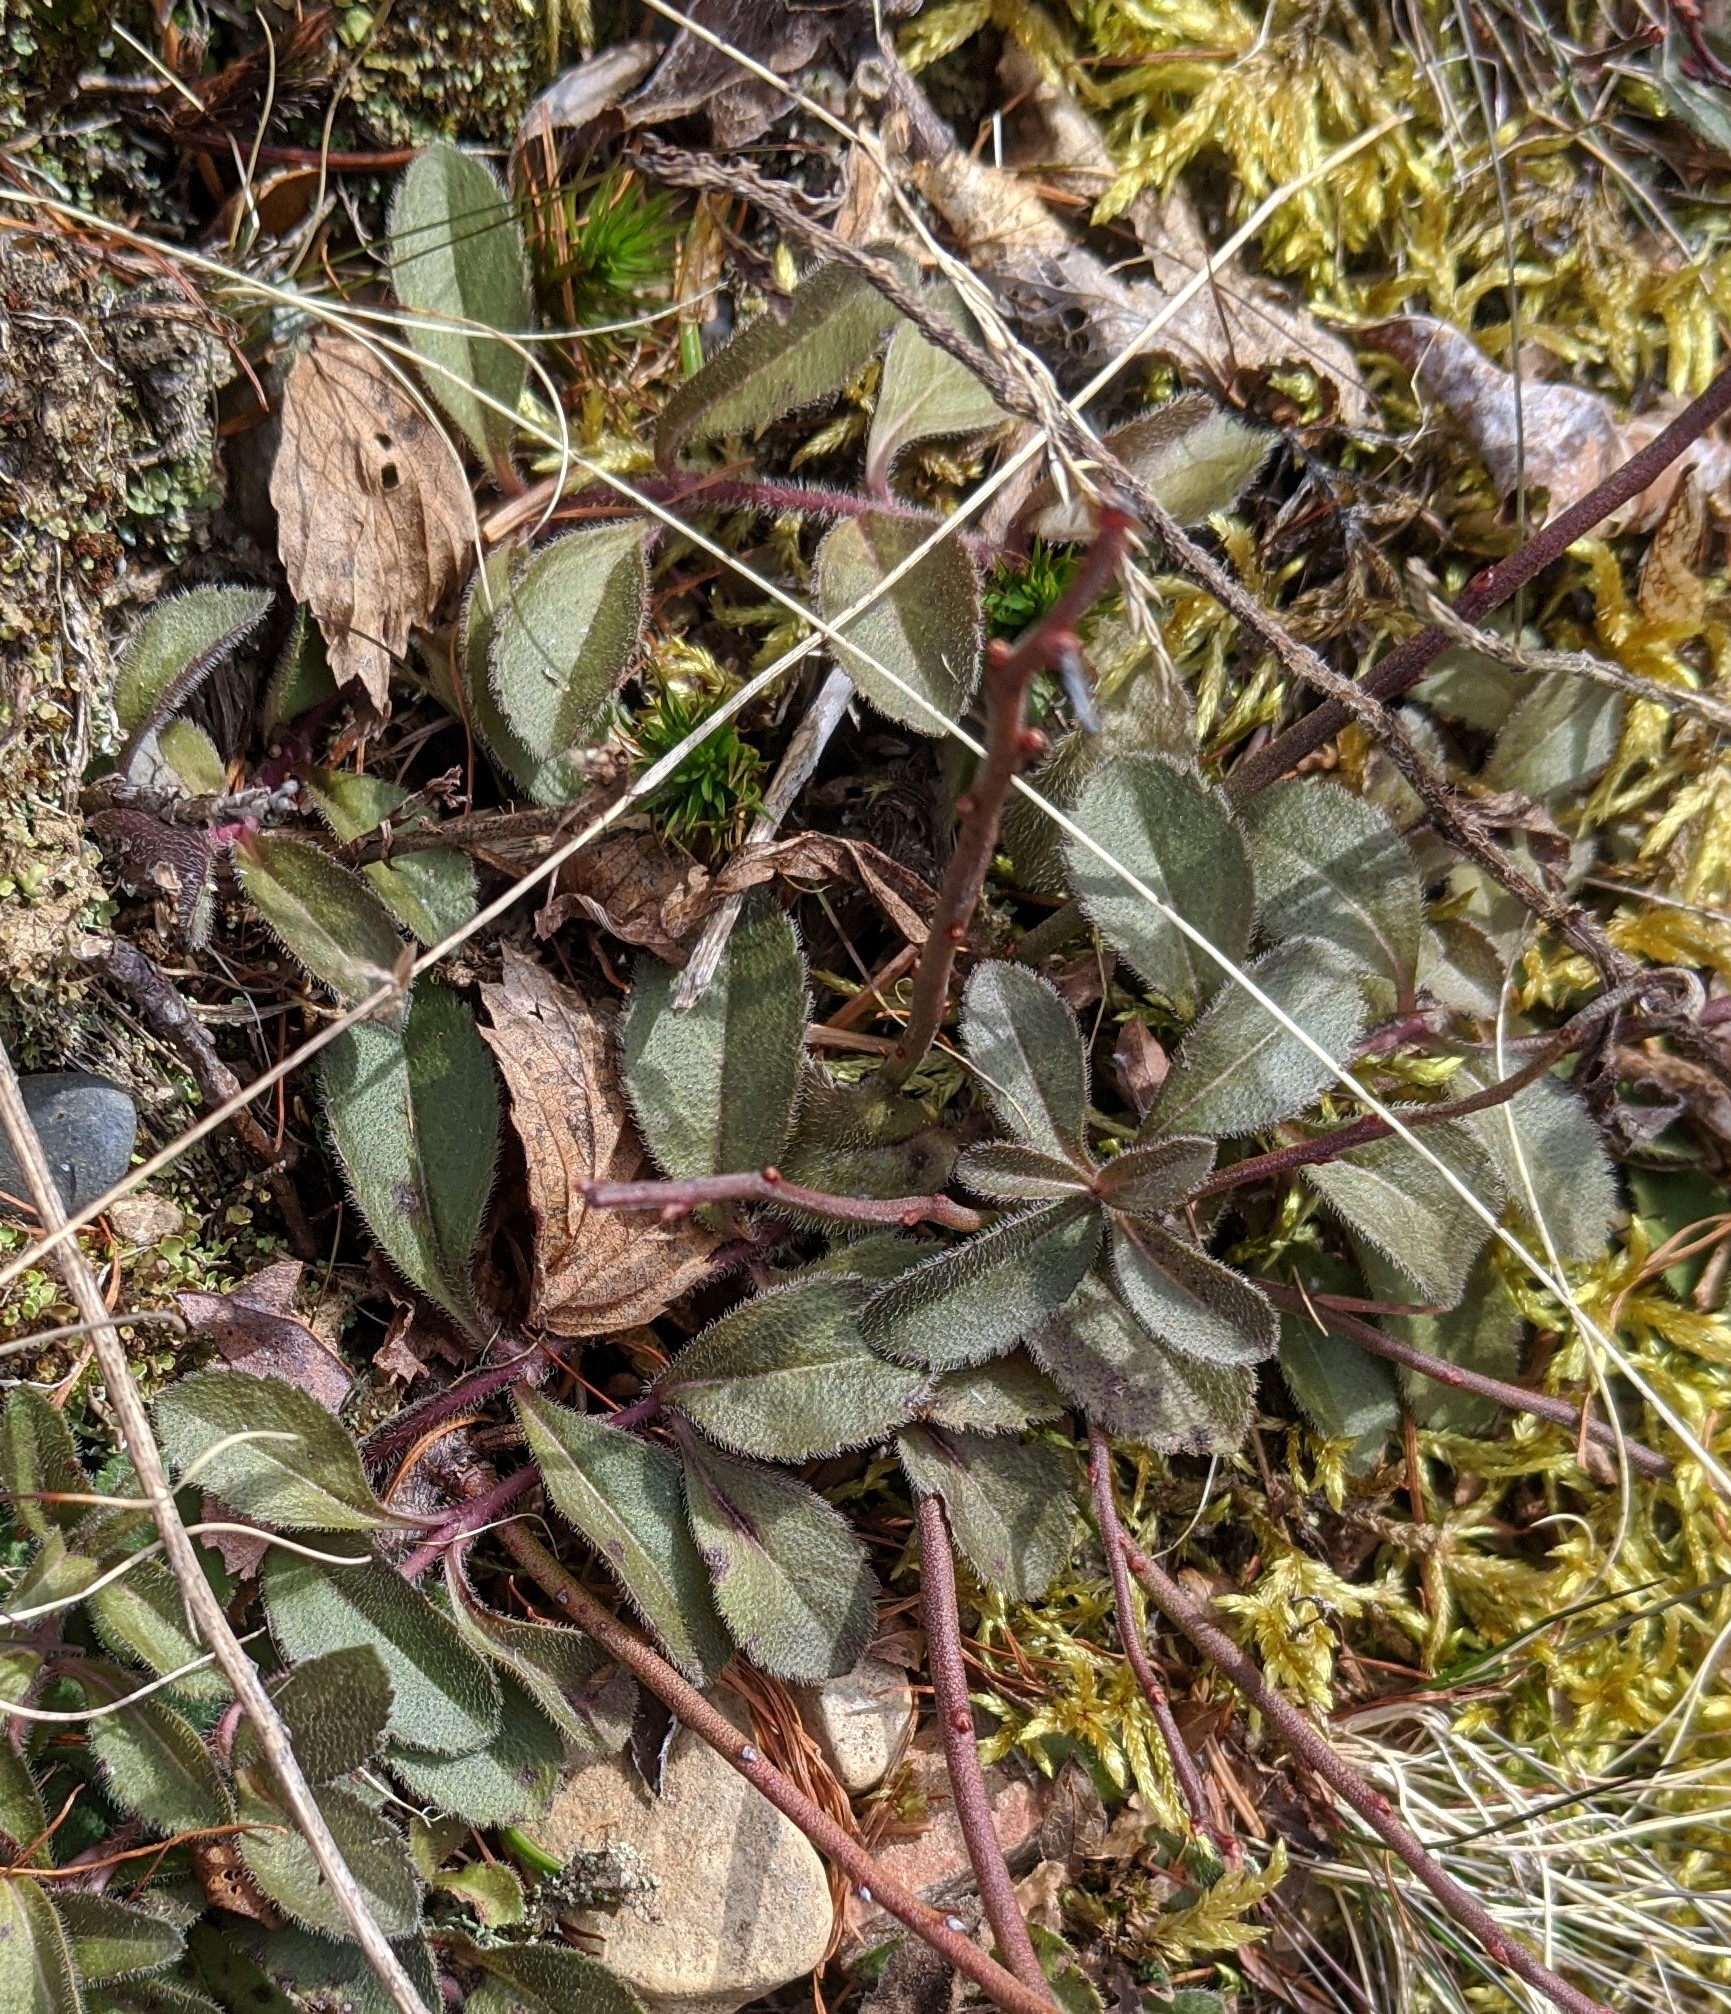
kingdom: Plantae
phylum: Tracheophyta
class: Magnoliopsida
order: Lamiales
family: Plantaginaceae
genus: Veronica
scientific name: Veronica officinalis
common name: Common speedwell
